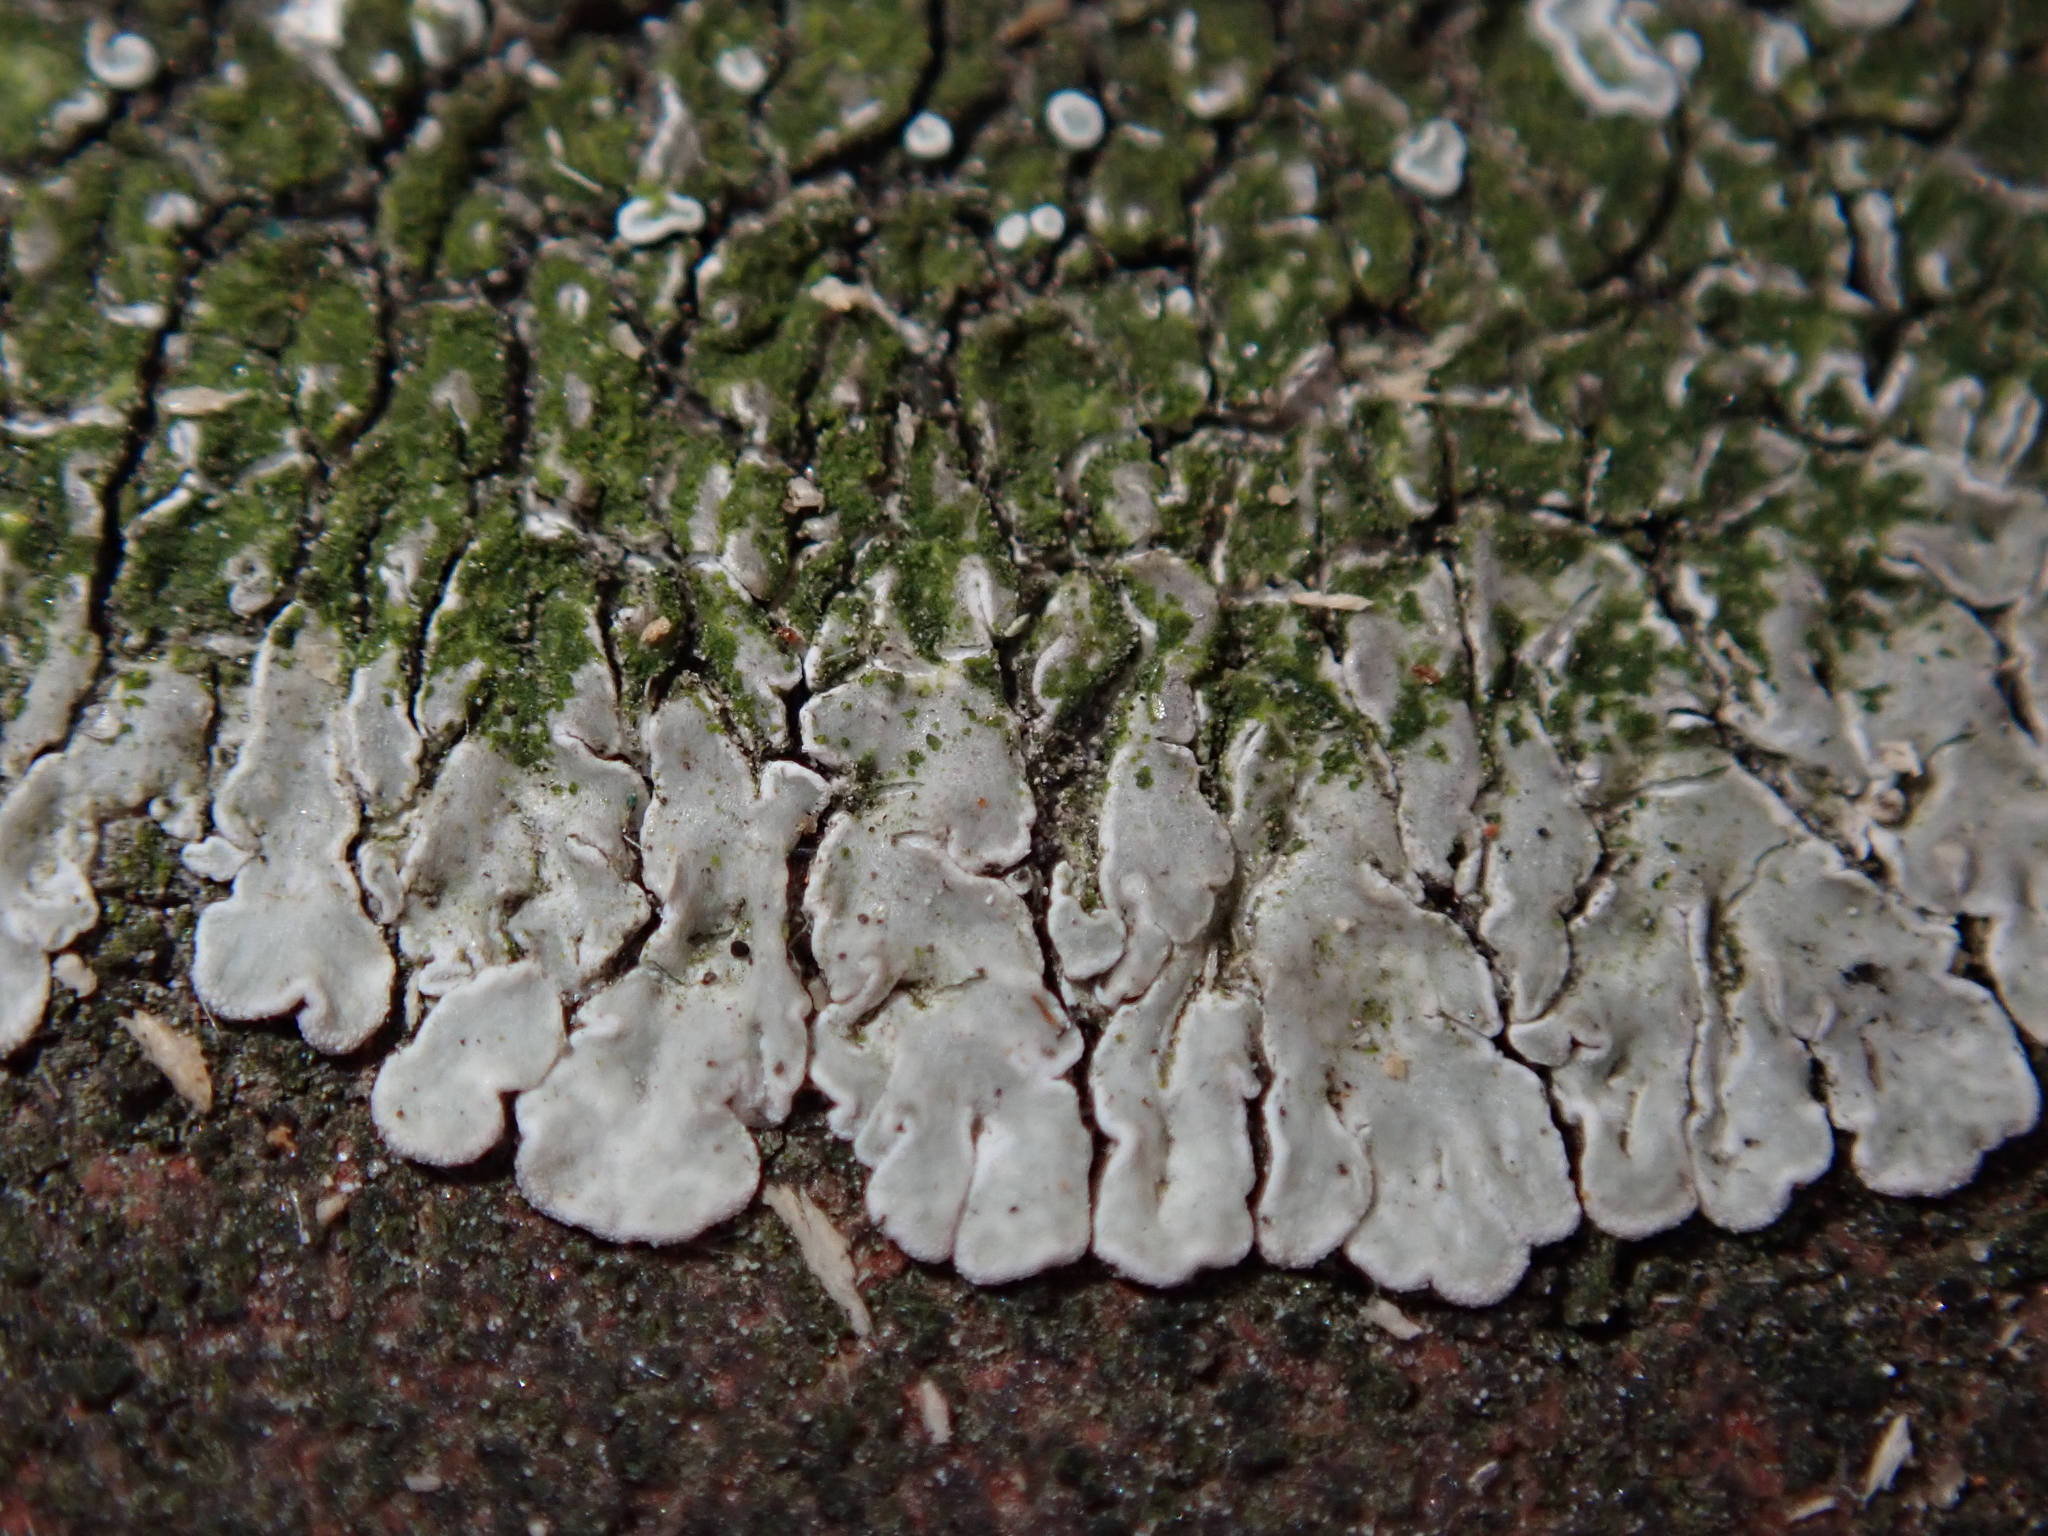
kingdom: Fungi
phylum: Ascomycota
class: Lecanoromycetes
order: Lecanorales
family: Lecanoraceae
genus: Protoparmeliopsis
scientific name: Protoparmeliopsis muralis
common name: Stonewall rim lichen
